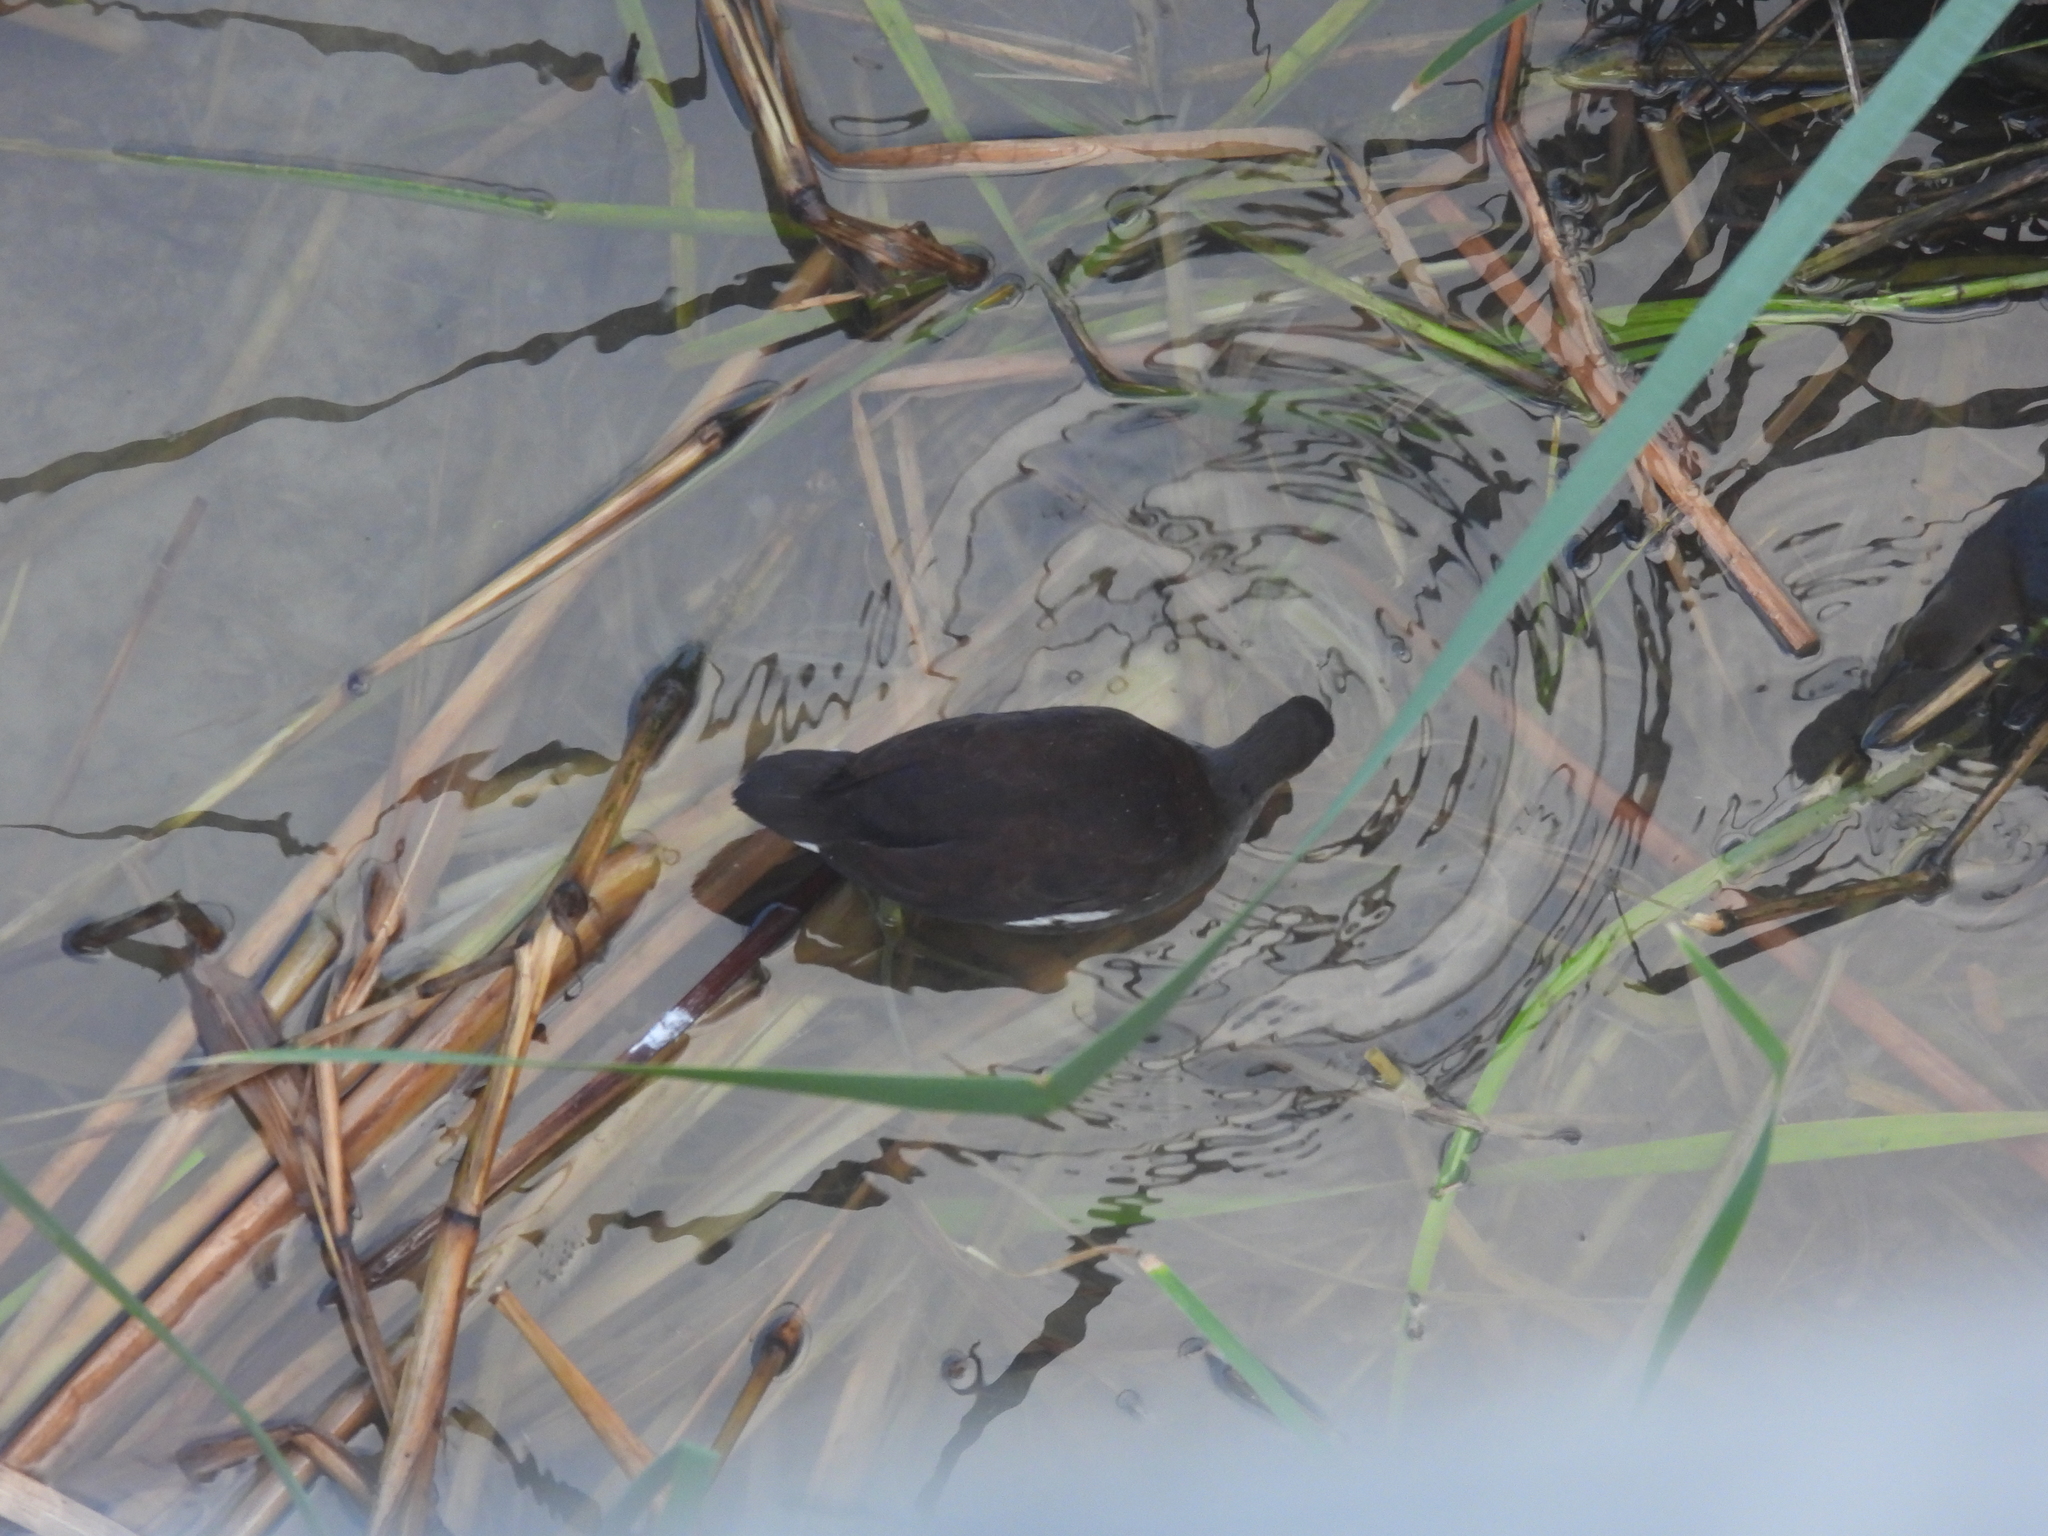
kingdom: Animalia
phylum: Chordata
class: Aves
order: Gruiformes
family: Rallidae
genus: Gallinula
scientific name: Gallinula chloropus
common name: Common moorhen
